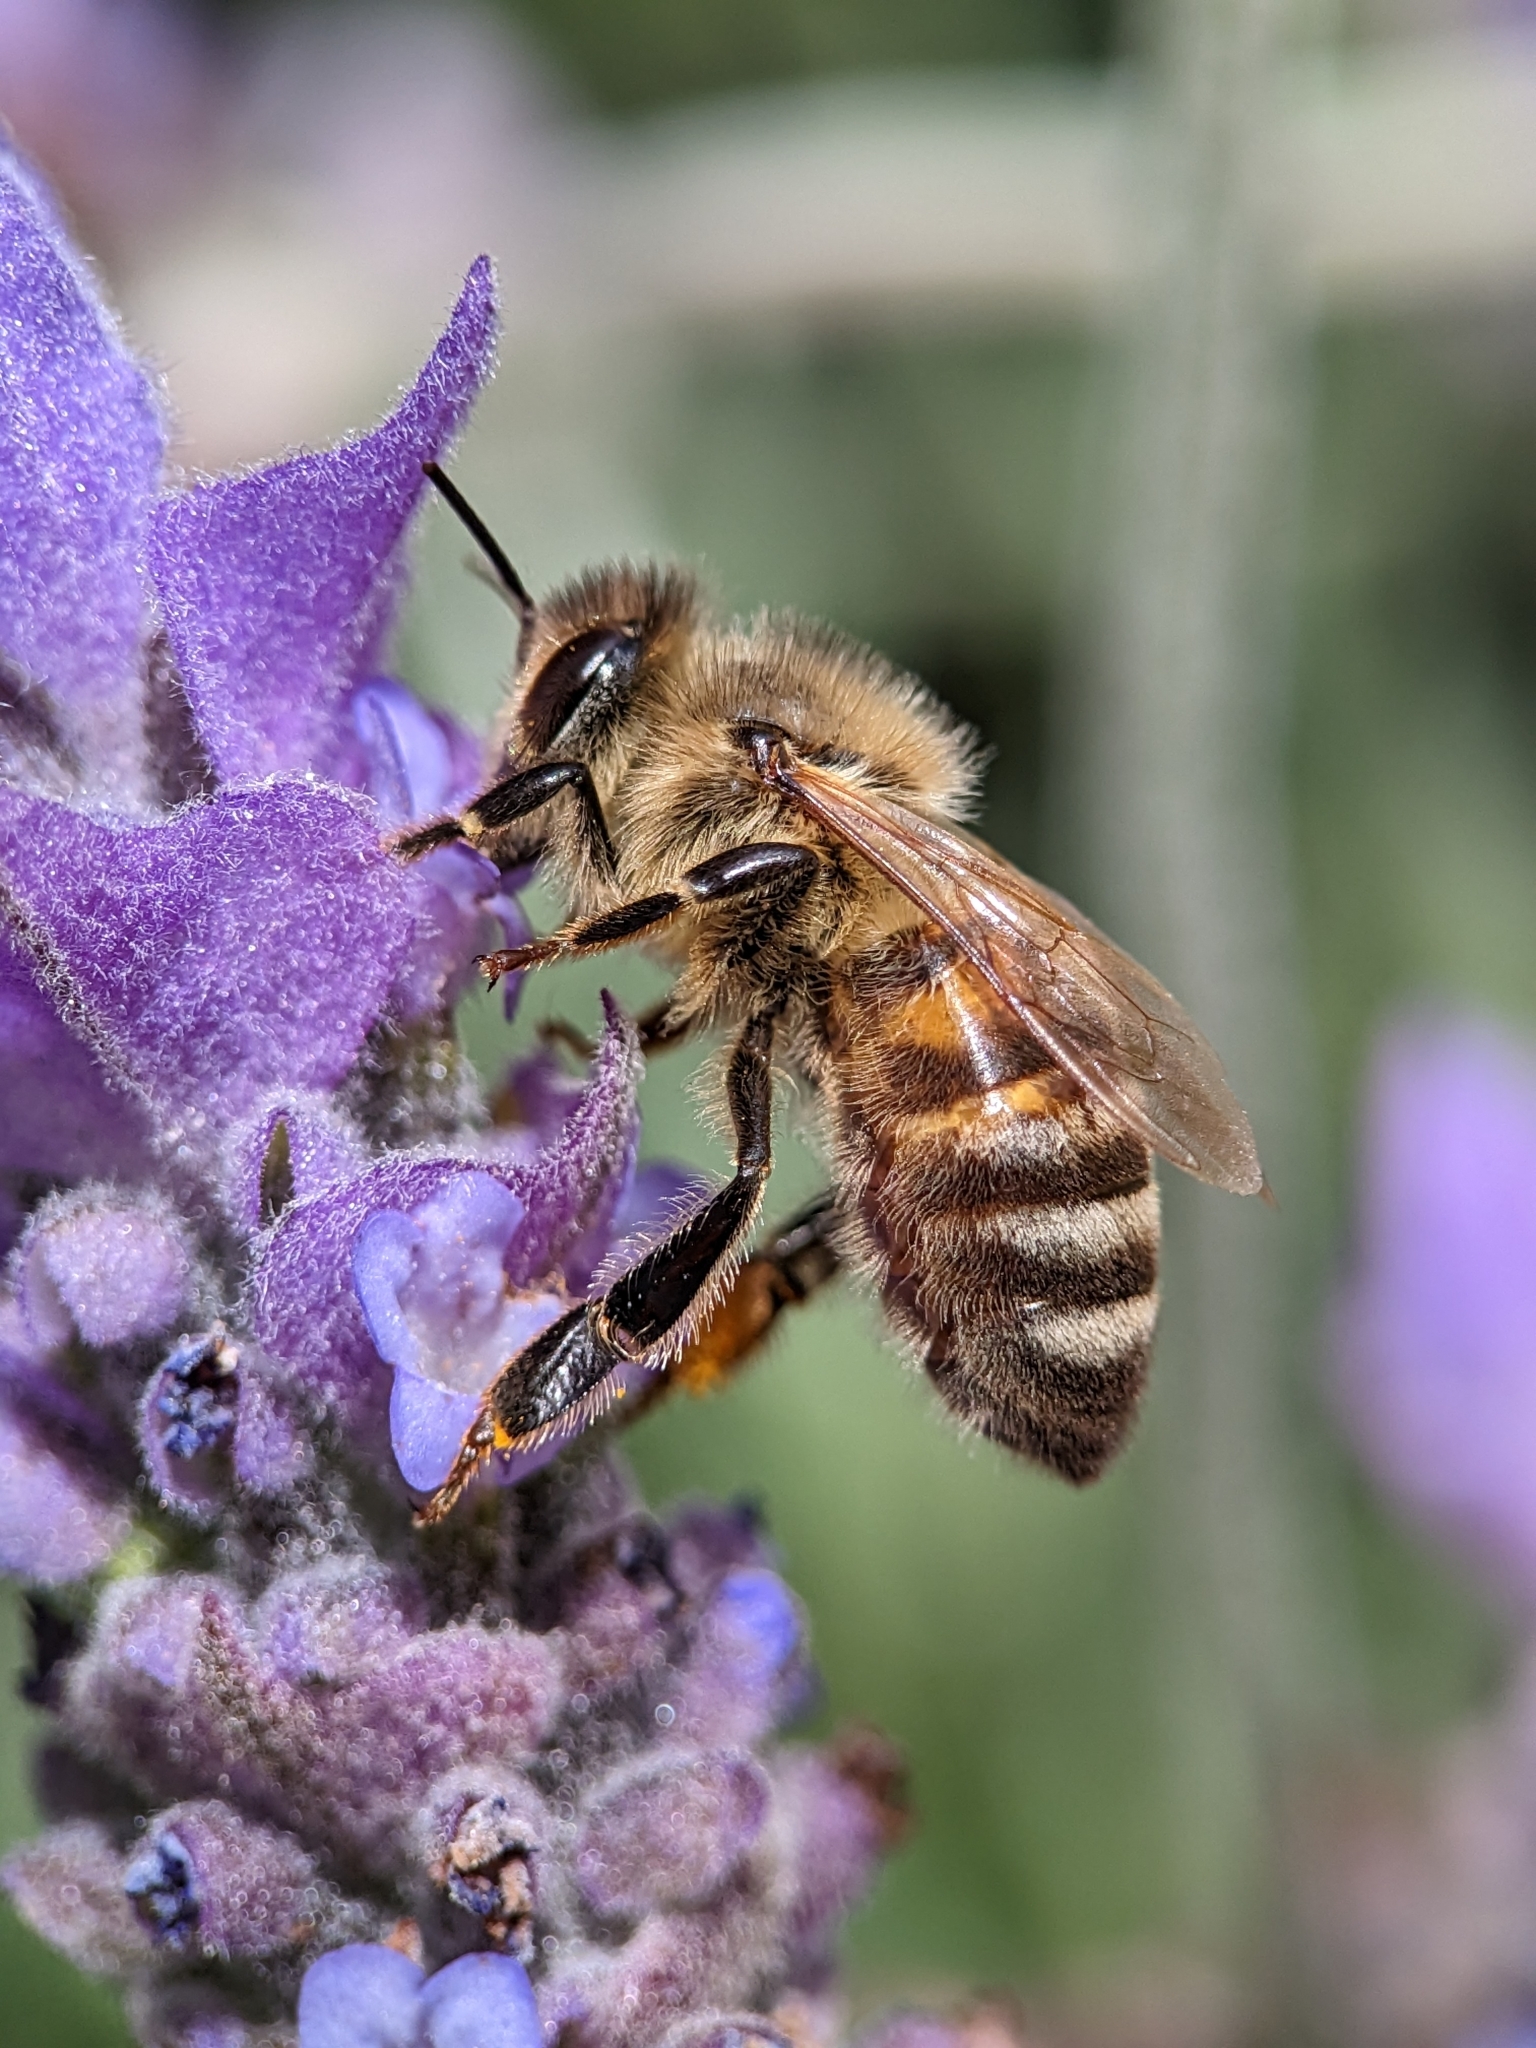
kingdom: Animalia
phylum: Arthropoda
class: Insecta
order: Hymenoptera
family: Apidae
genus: Apis
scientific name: Apis mellifera
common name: Honey bee
